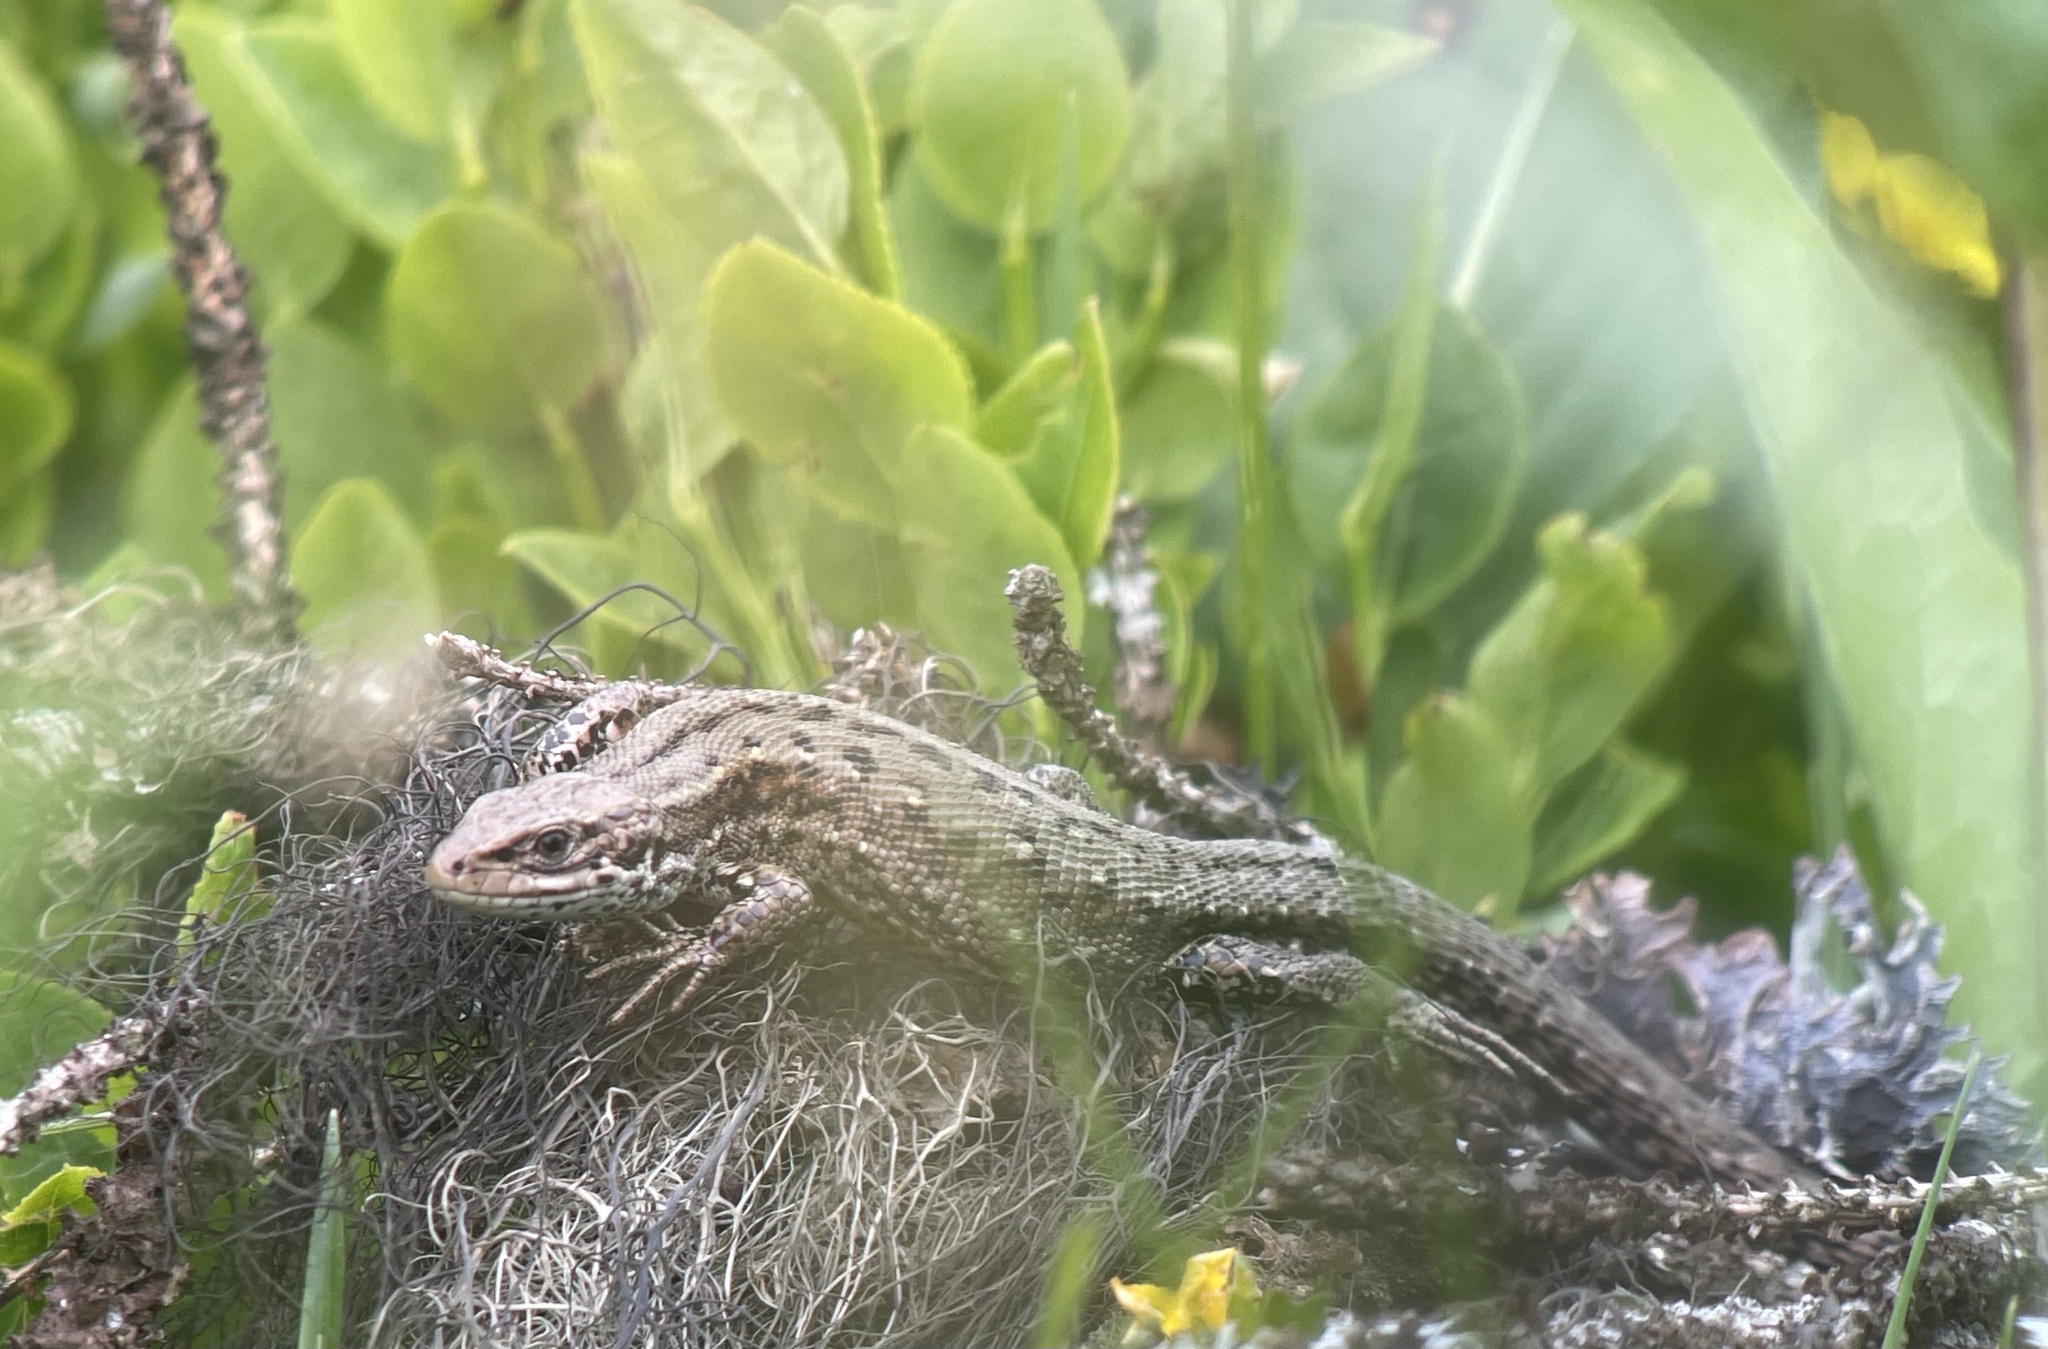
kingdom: Animalia
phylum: Chordata
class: Squamata
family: Lacertidae
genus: Zootoca
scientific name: Zootoca vivipara
